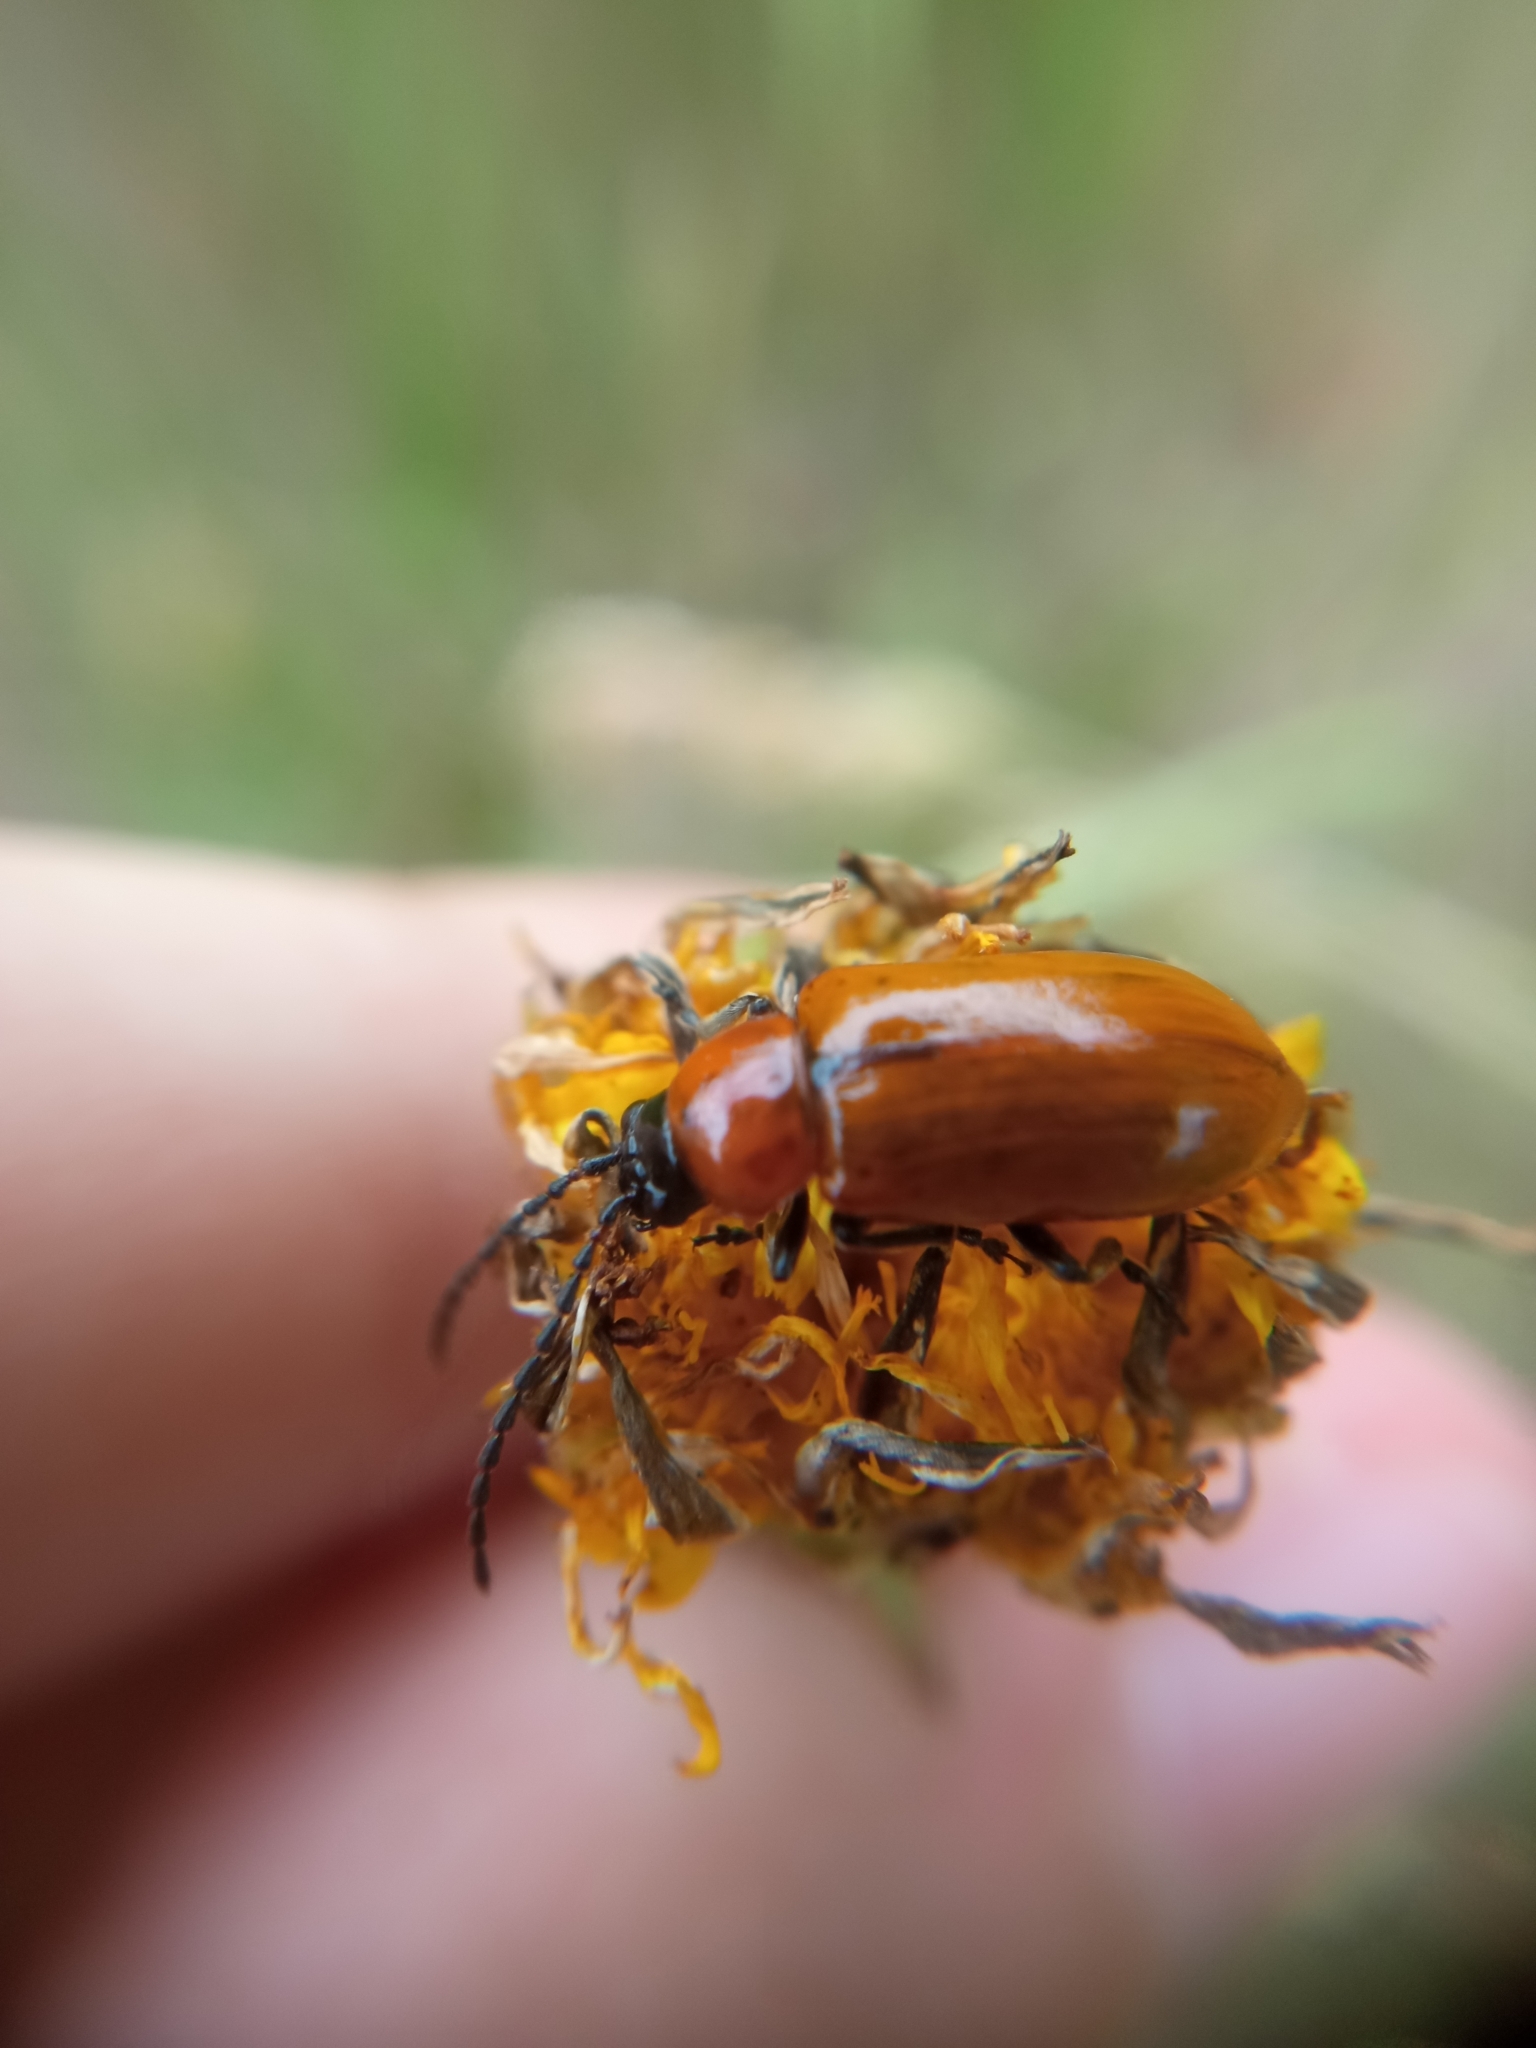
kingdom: Animalia
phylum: Arthropoda
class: Insecta
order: Coleoptera
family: Chrysomelidae
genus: Exosoma
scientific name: Exosoma lusitanicum
